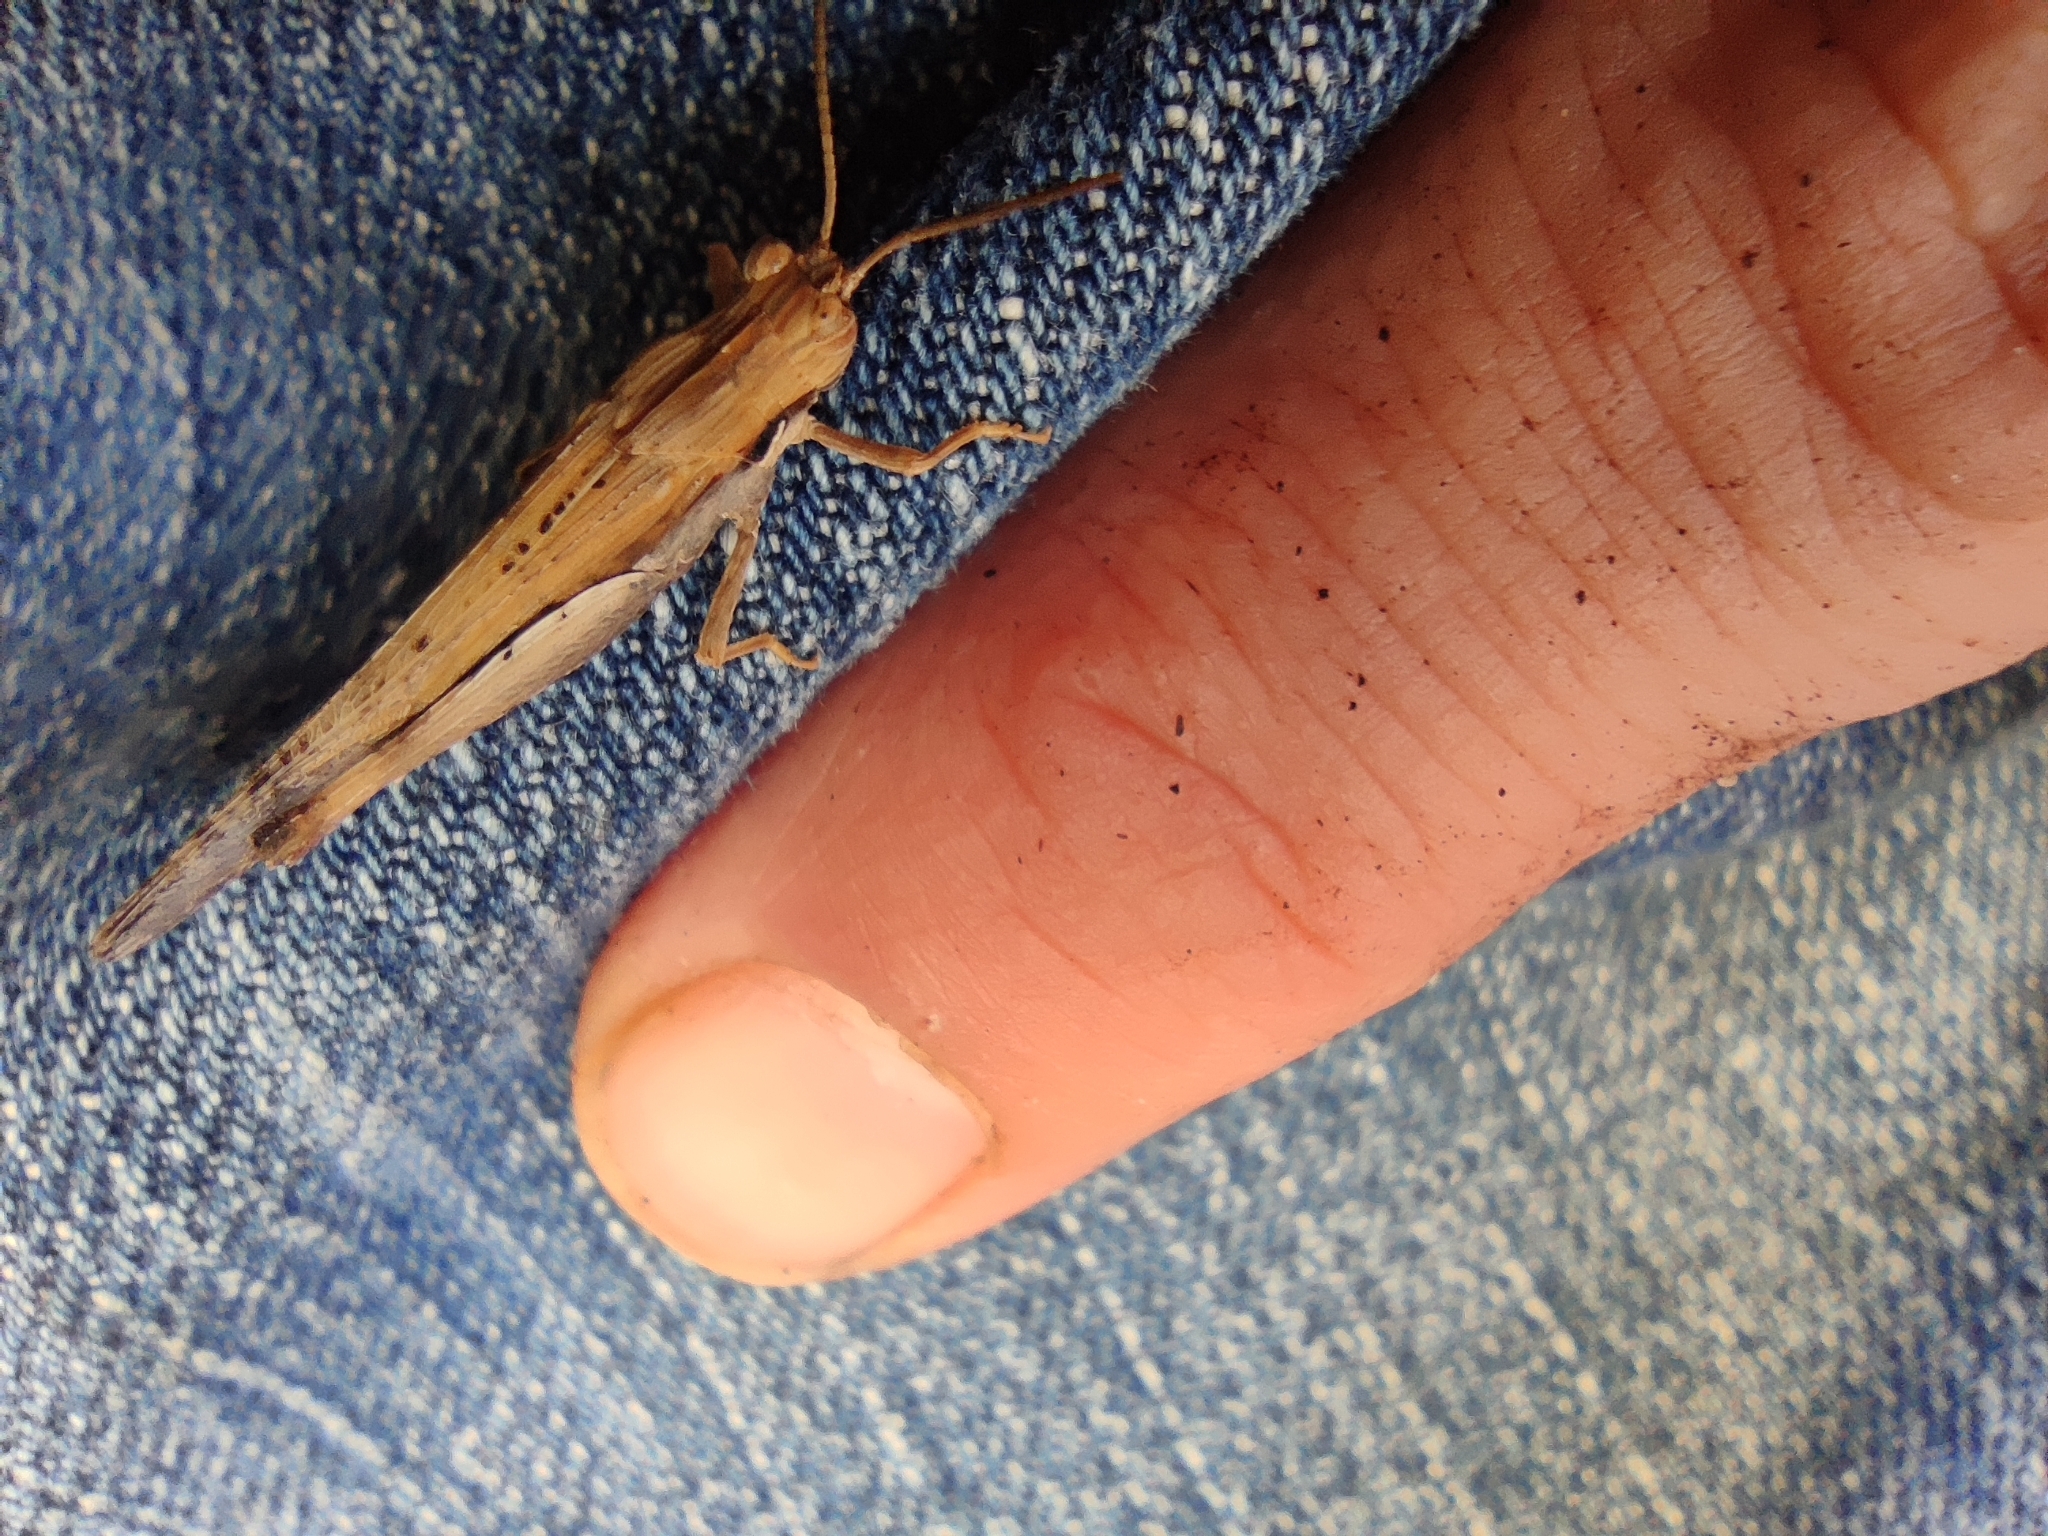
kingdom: Animalia
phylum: Arthropoda
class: Insecta
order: Orthoptera
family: Acrididae
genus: Morphacris
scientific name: Morphacris fasciata
